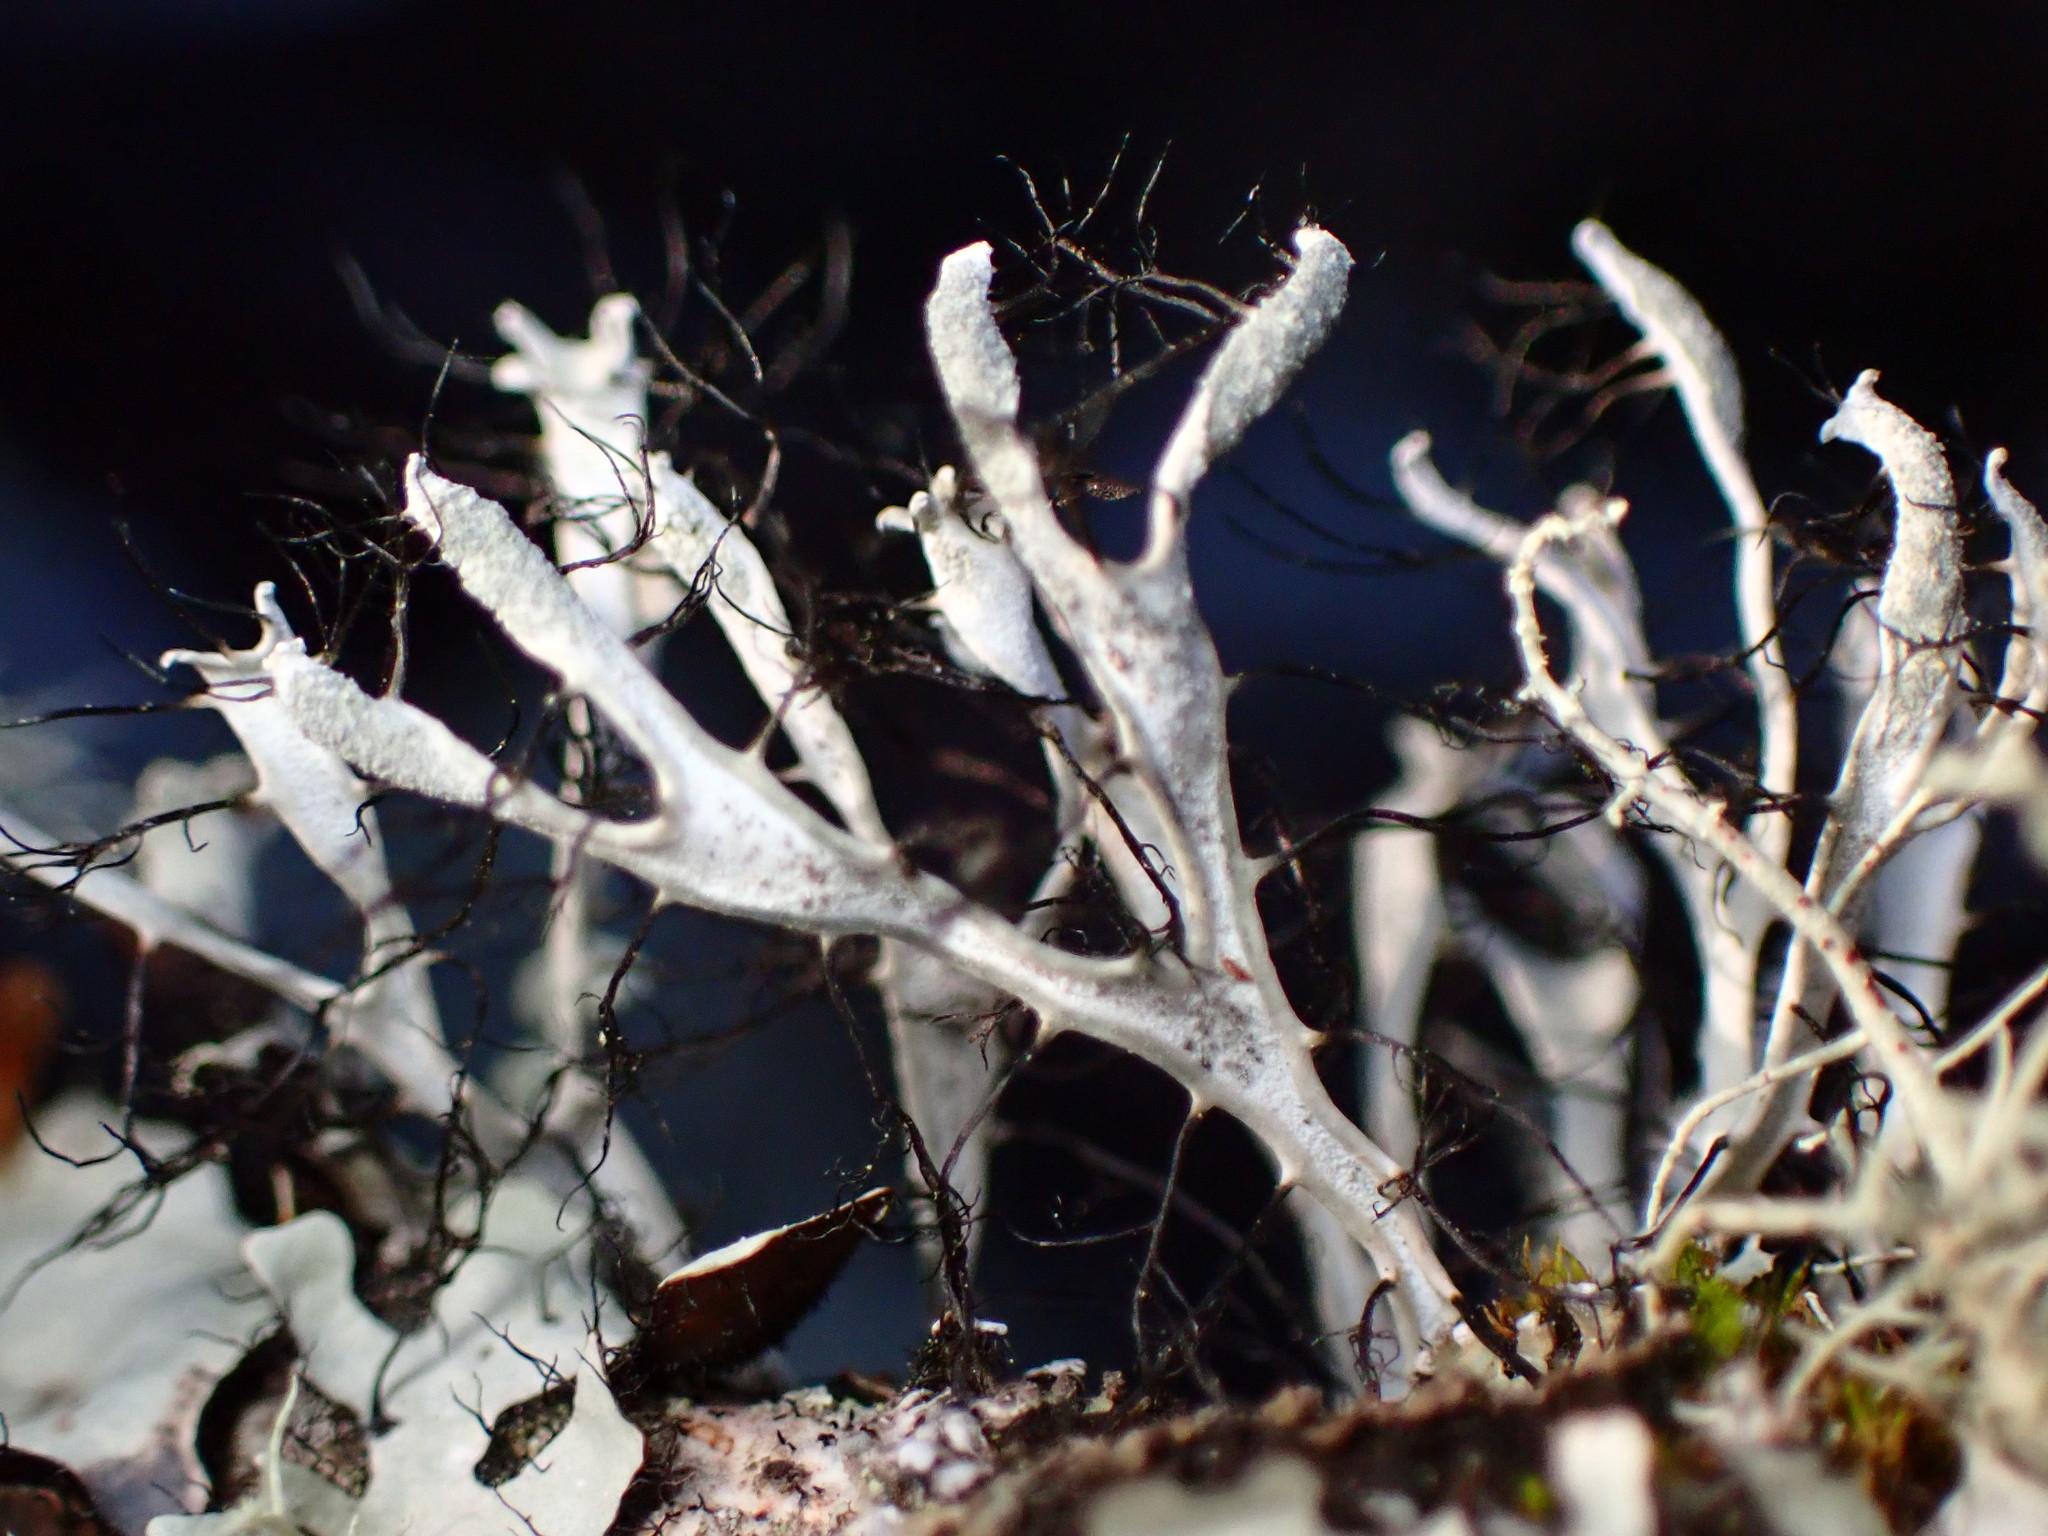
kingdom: Fungi
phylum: Ascomycota
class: Lecanoromycetes
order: Caliciales
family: Physciaceae
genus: Leucodermia
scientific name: Leucodermia leucomelos
